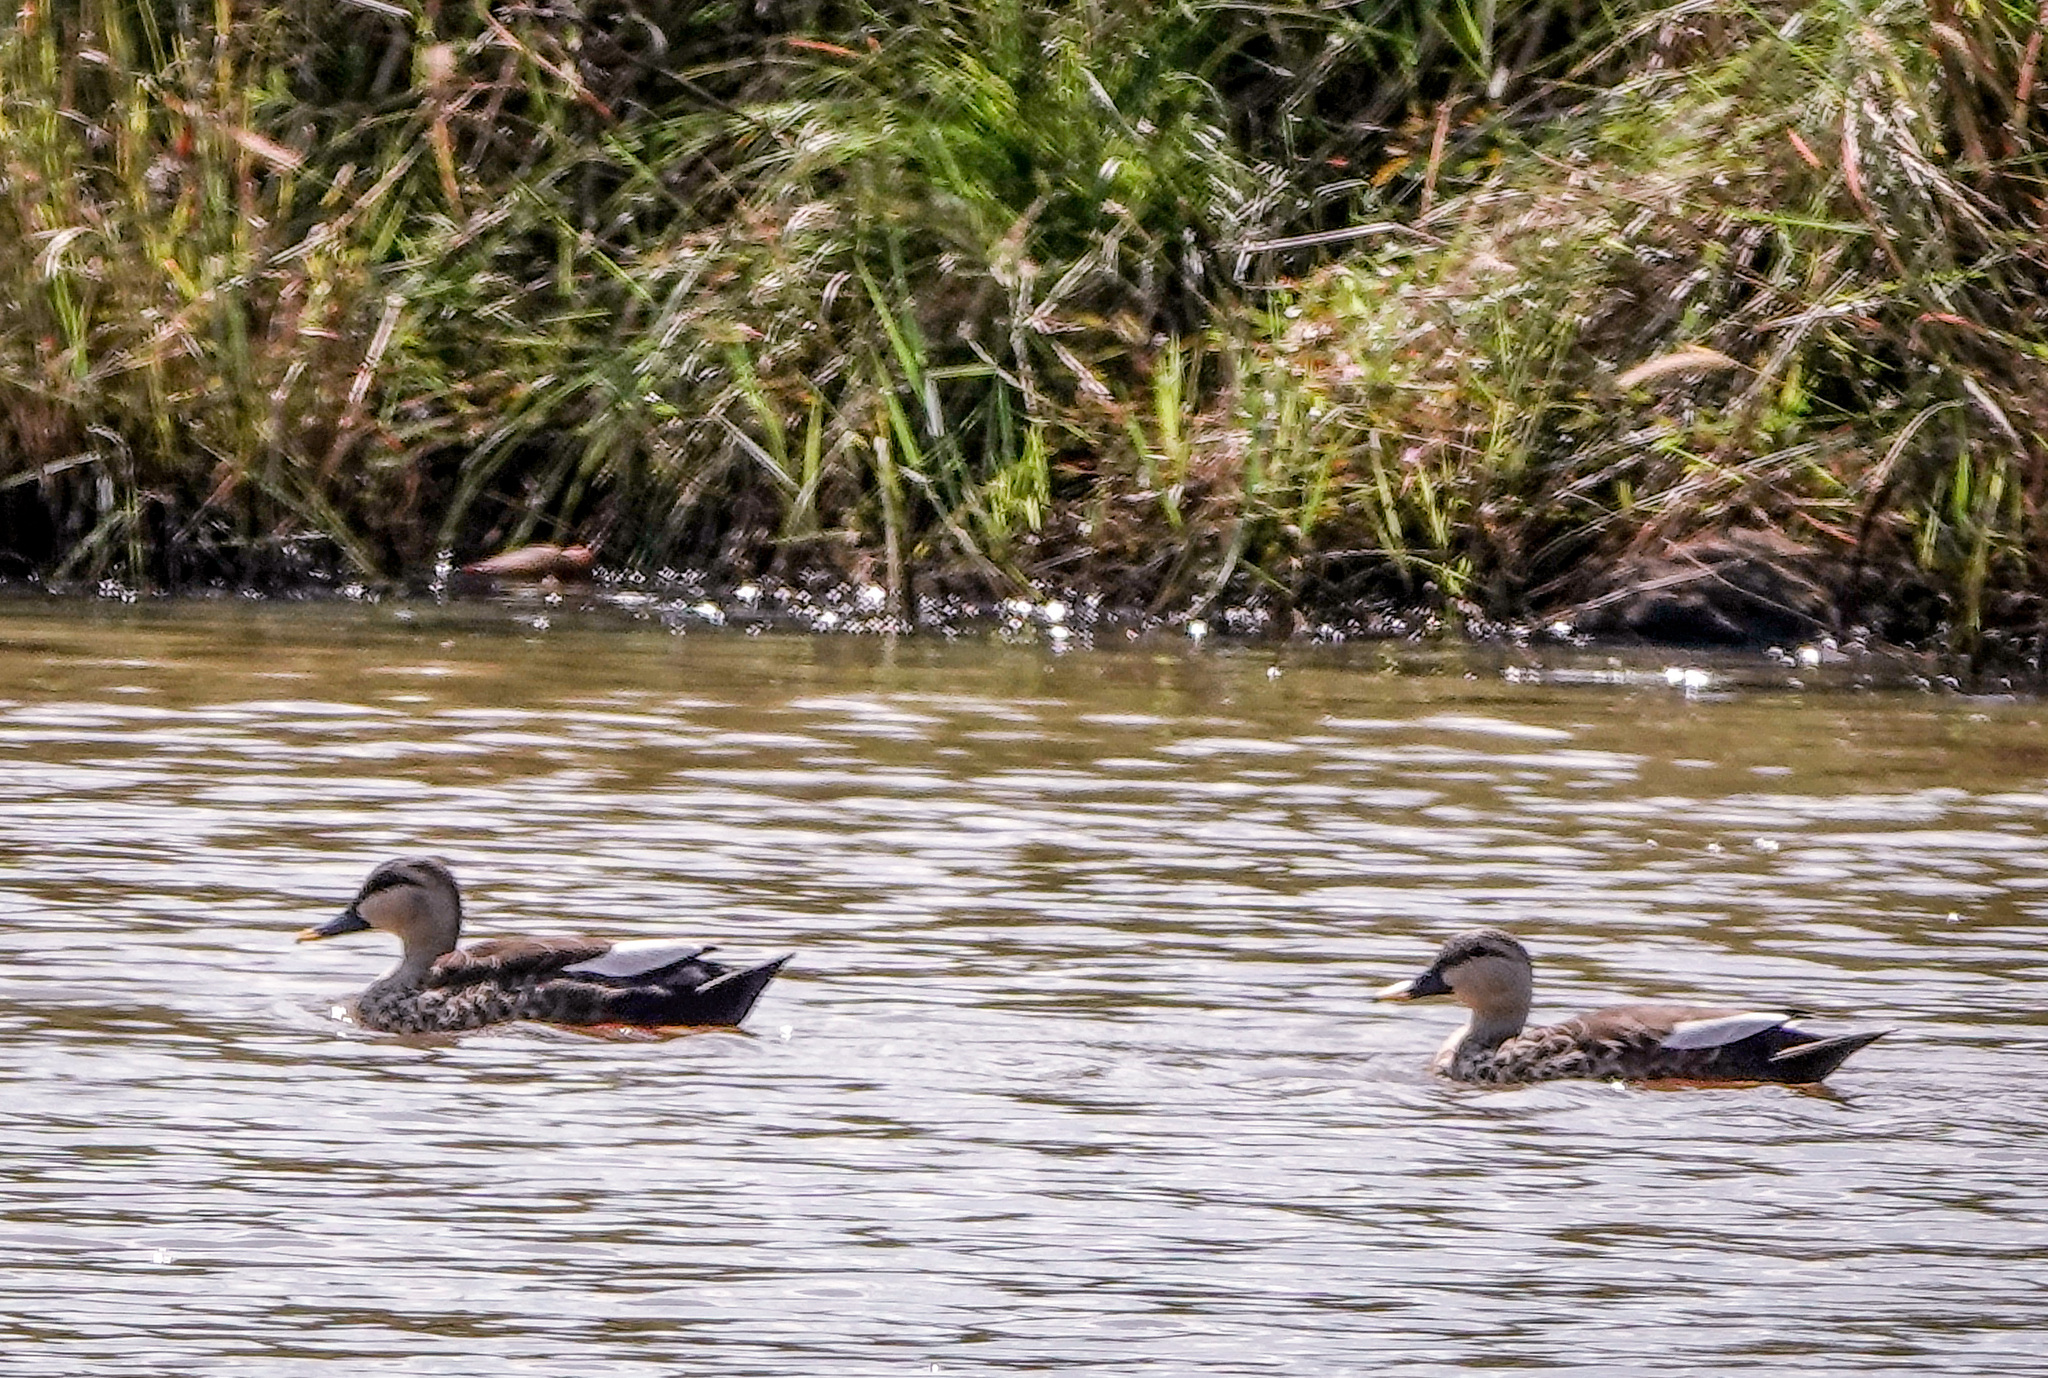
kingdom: Animalia
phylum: Chordata
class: Aves
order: Anseriformes
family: Anatidae
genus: Anas
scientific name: Anas poecilorhyncha
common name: Indian spot-billed duck
